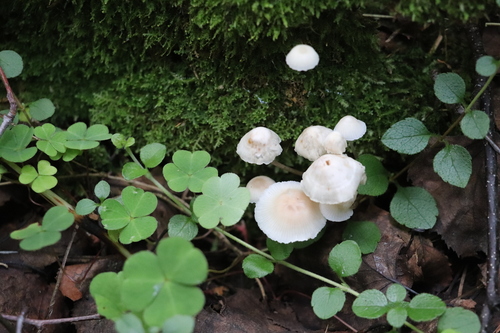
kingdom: Fungi
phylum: Basidiomycota
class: Agaricomycetes
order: Agaricales
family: Marasmiaceae
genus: Marasmius
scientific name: Marasmius wynneae
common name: Pearly parachute
